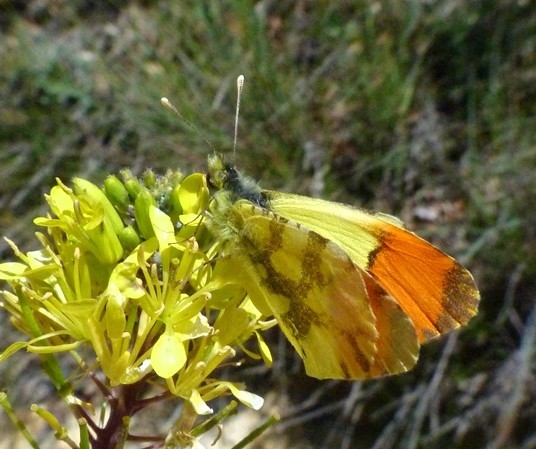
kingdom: Animalia
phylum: Arthropoda
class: Insecta
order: Lepidoptera
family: Pieridae
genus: Anthocharis
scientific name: Anthocharis euphenoides
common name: Provence orange-tip
